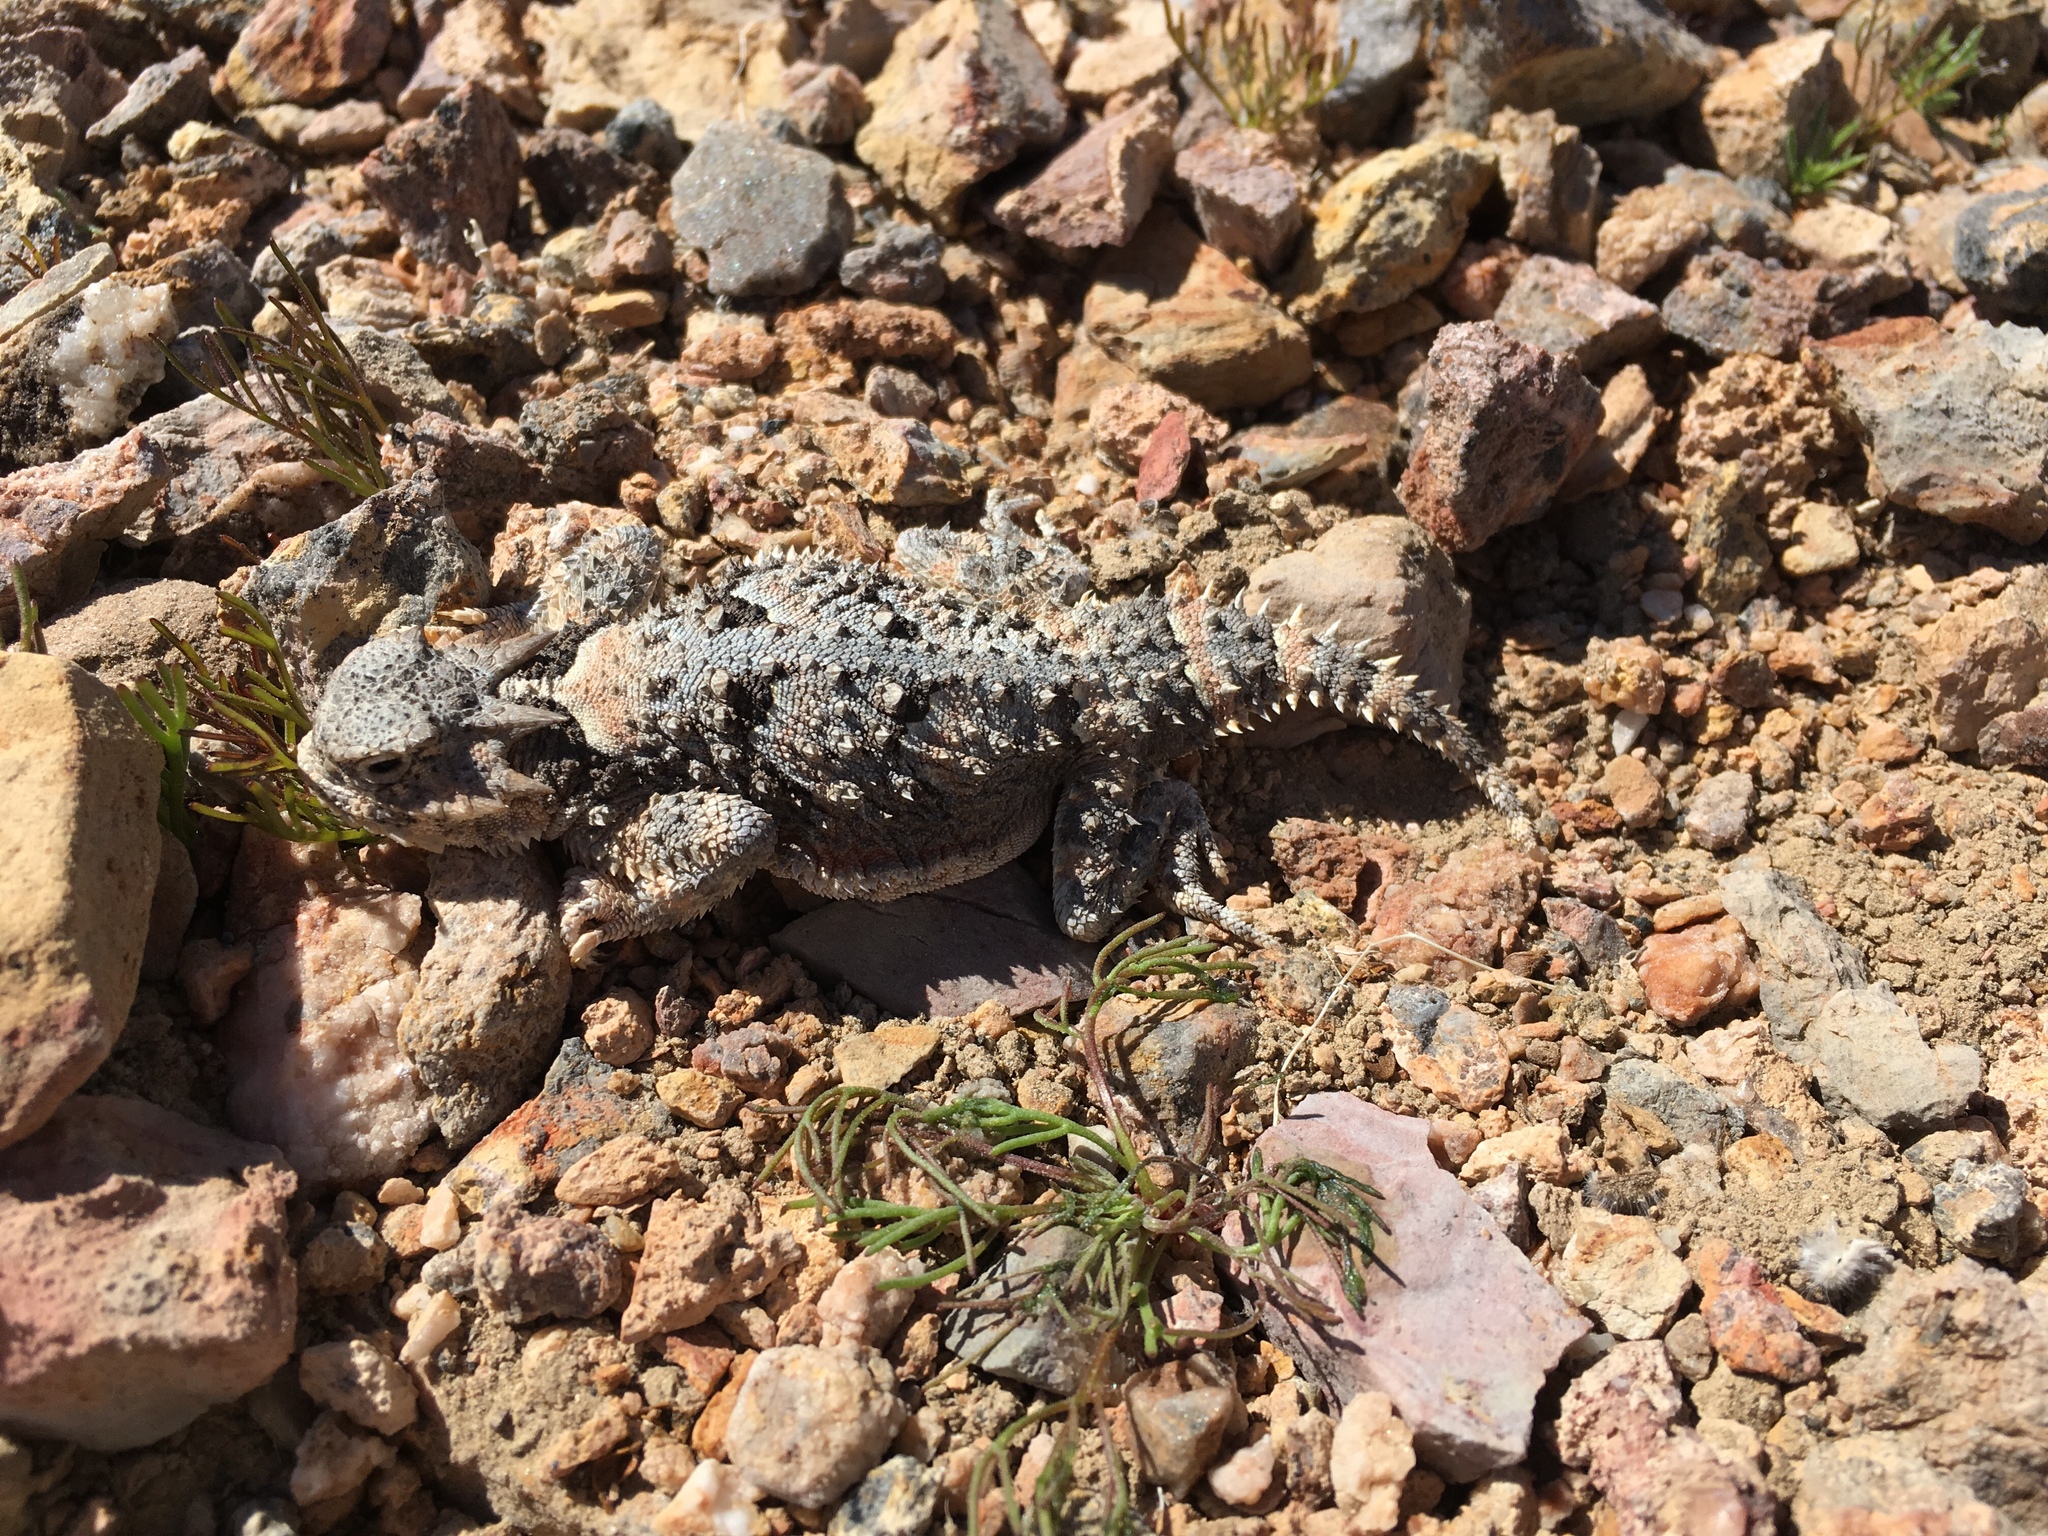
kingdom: Animalia
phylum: Chordata
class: Squamata
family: Phrynosomatidae
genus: Phrynosoma
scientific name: Phrynosoma platyrhinos
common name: Desert horned lizard
